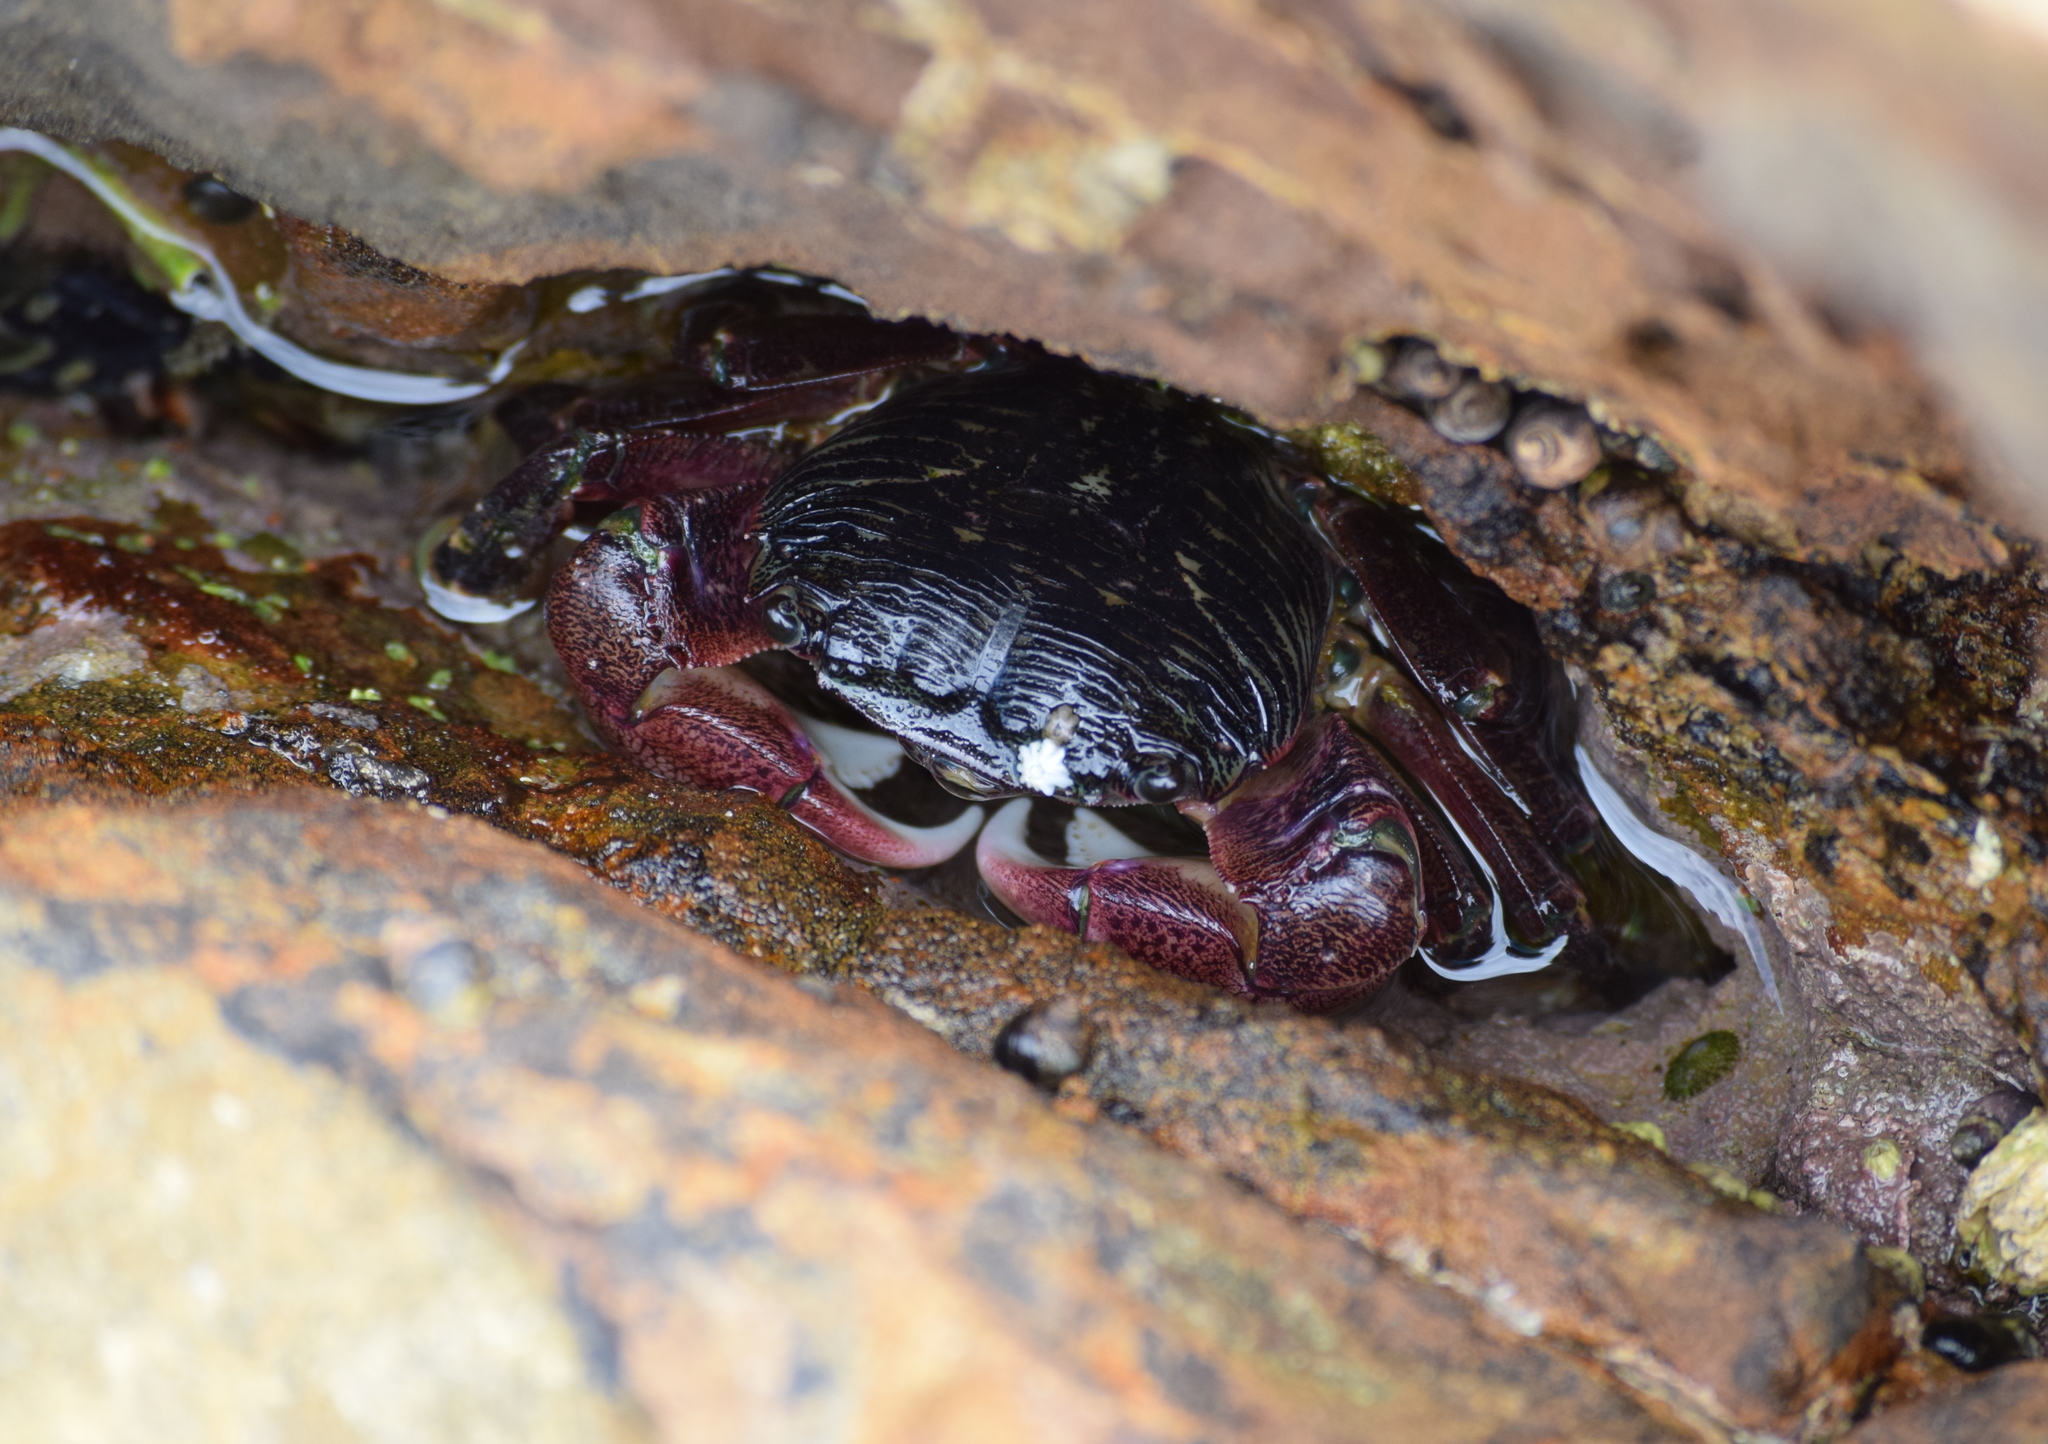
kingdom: Animalia
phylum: Arthropoda
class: Malacostraca
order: Decapoda
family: Grapsidae
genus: Pachygrapsus
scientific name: Pachygrapsus crassipes
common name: Striped shore crab
